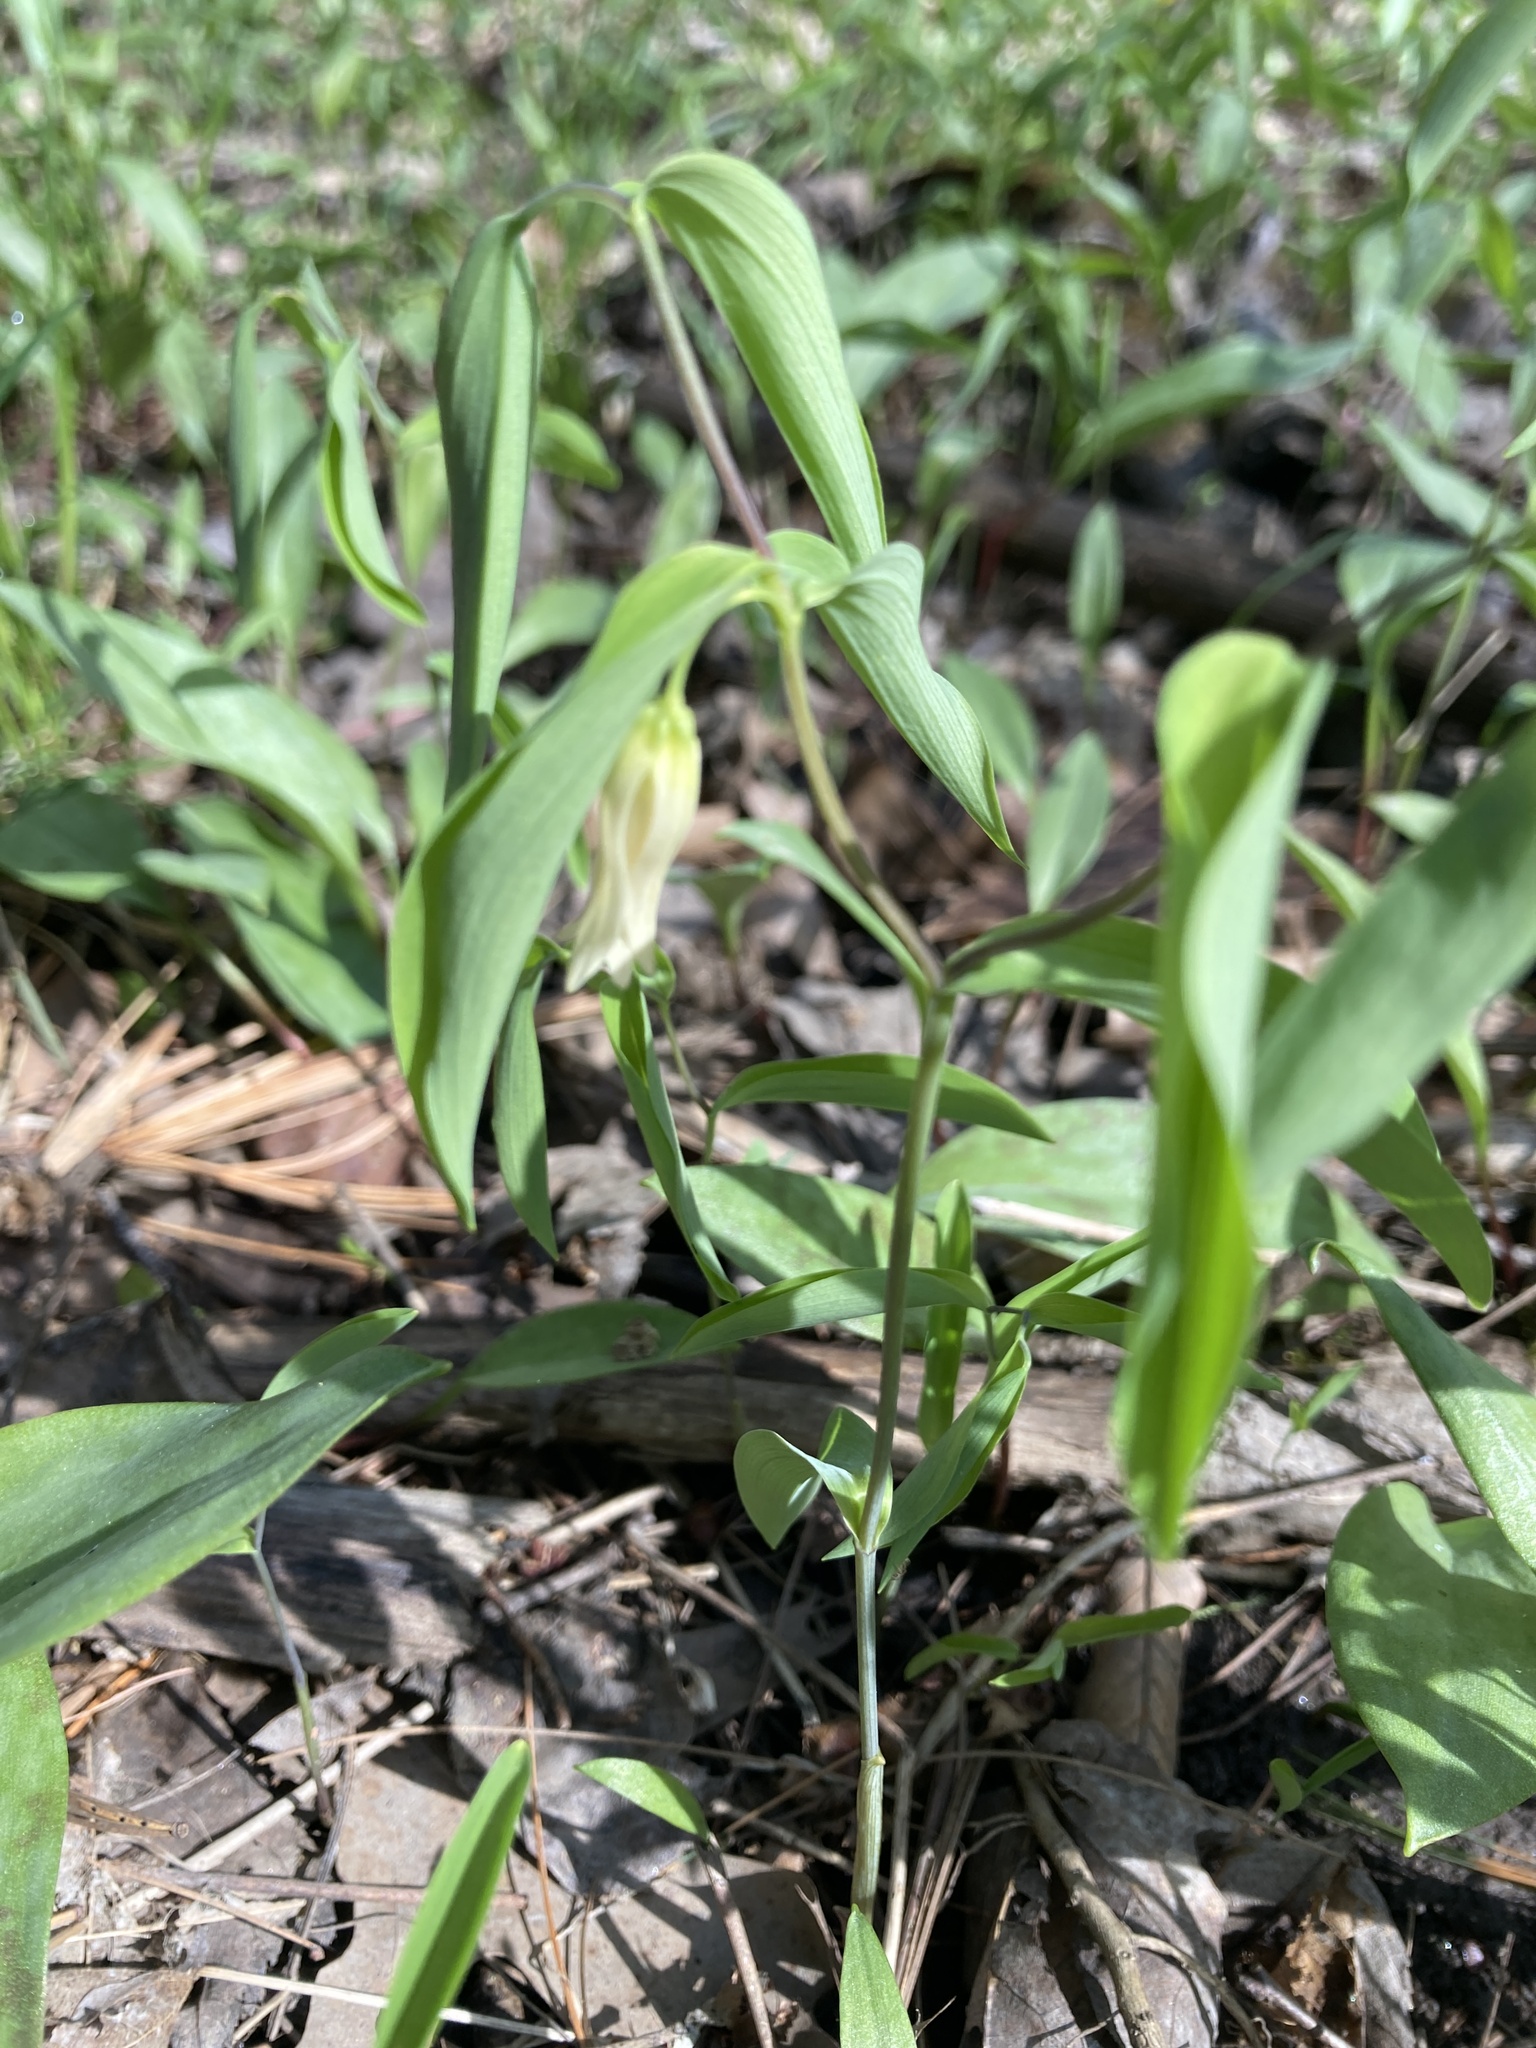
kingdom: Plantae
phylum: Tracheophyta
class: Liliopsida
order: Liliales
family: Colchicaceae
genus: Uvularia
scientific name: Uvularia sessilifolia
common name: Straw-lily
